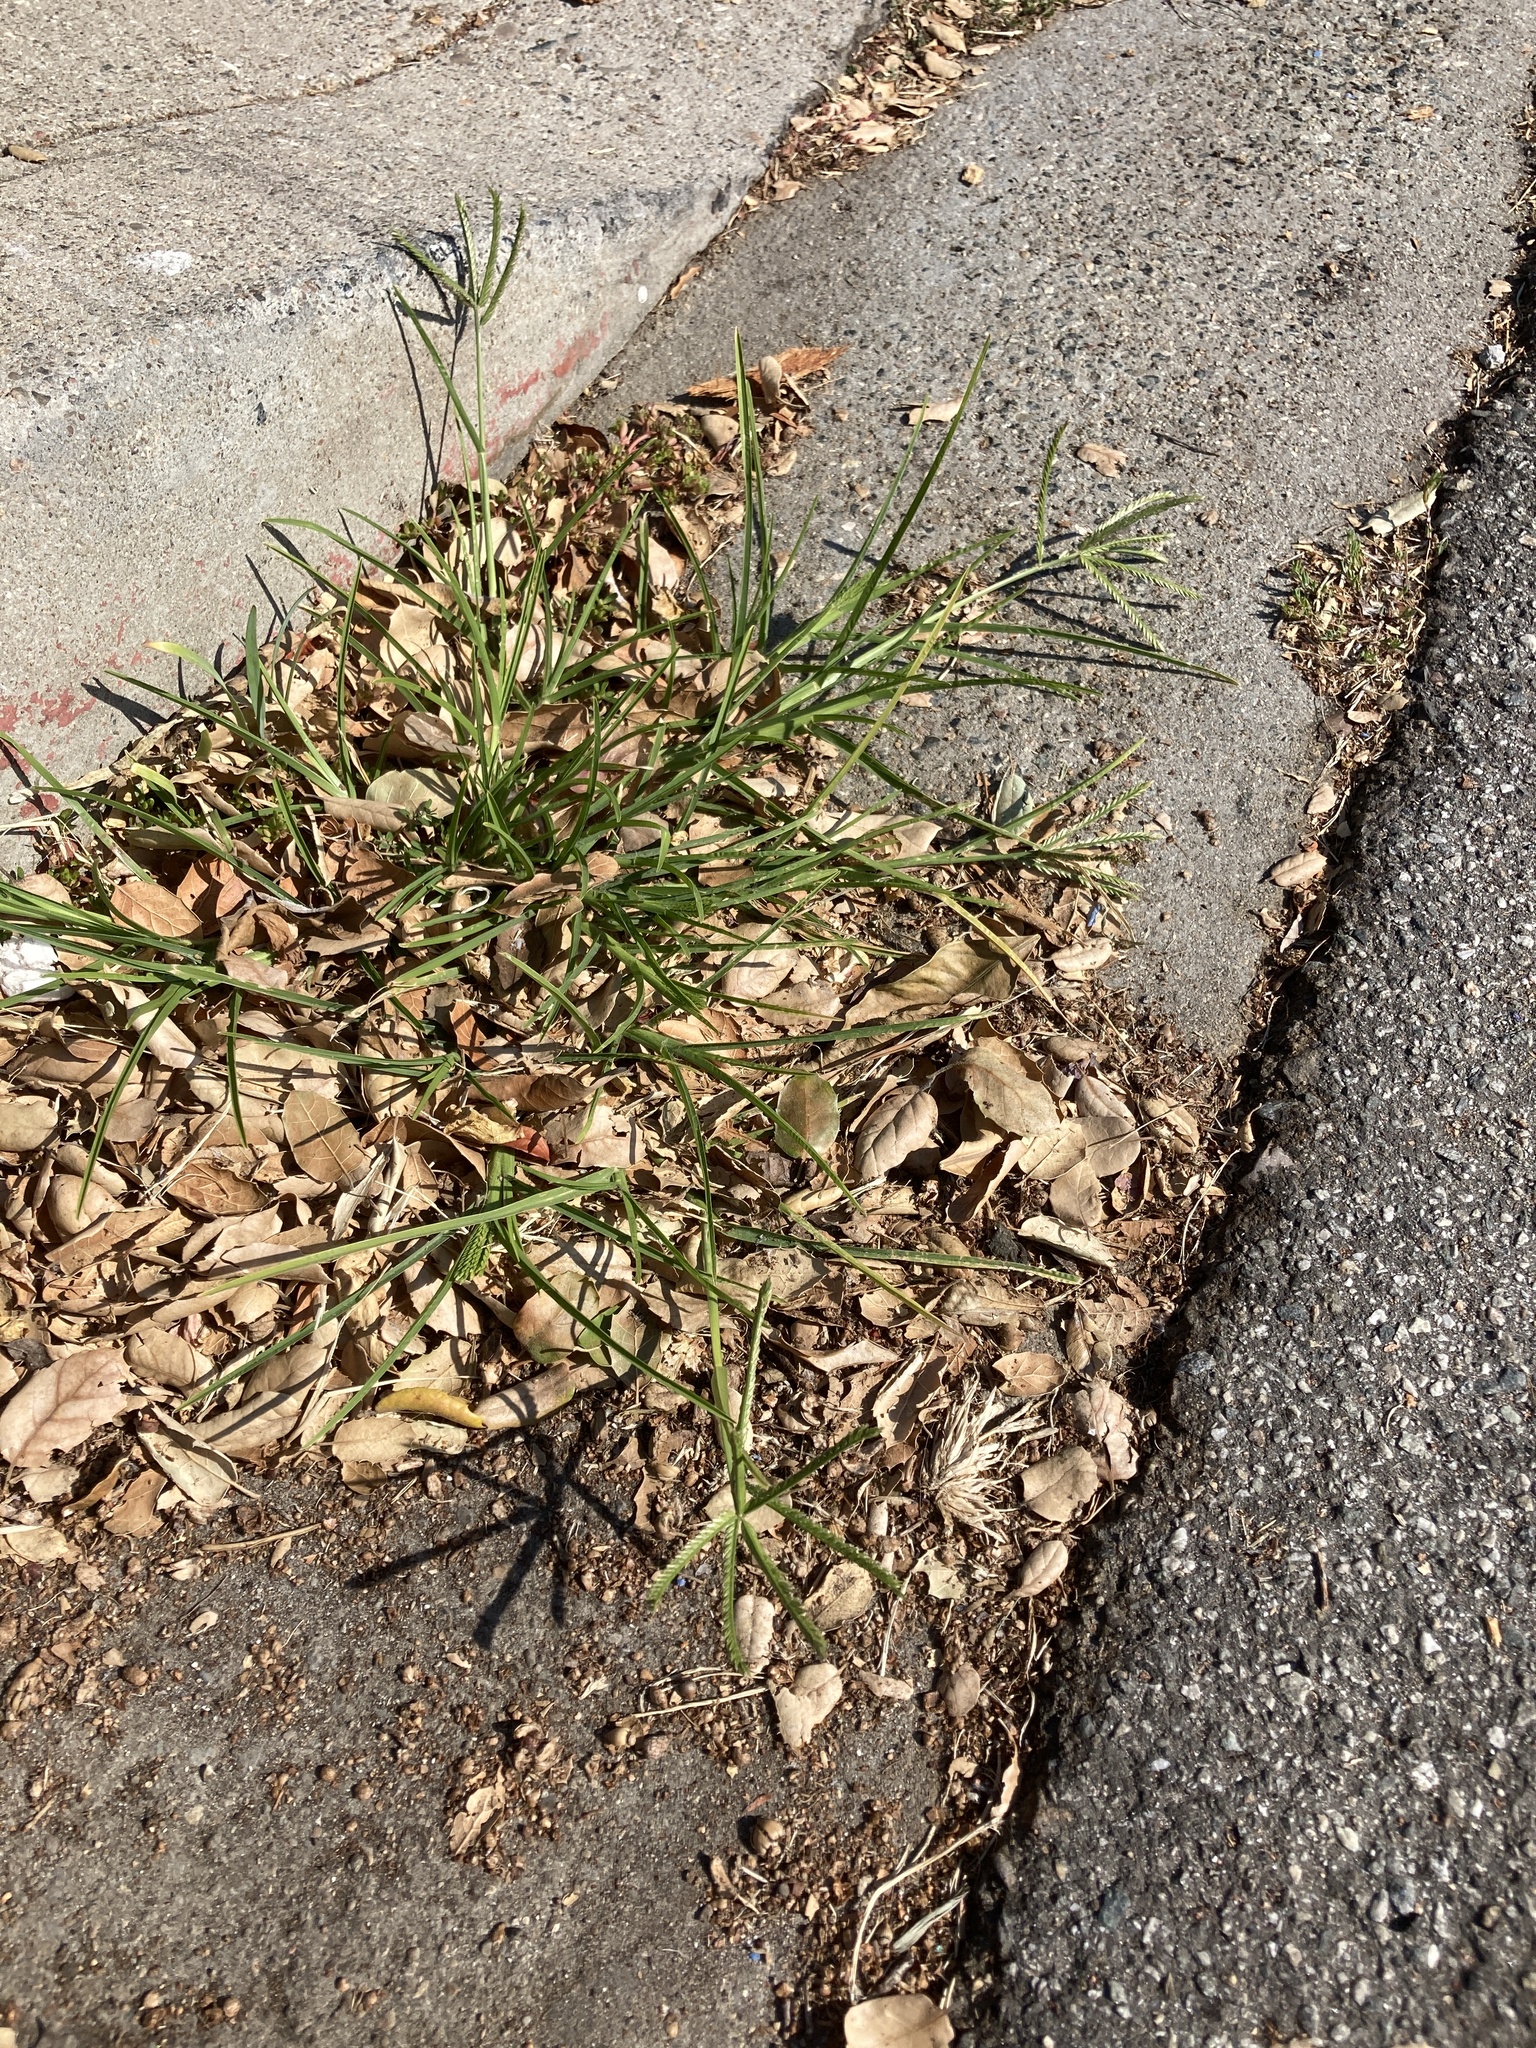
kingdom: Plantae
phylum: Tracheophyta
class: Liliopsida
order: Poales
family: Poaceae
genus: Eleusine
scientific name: Eleusine indica
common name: Yard-grass
